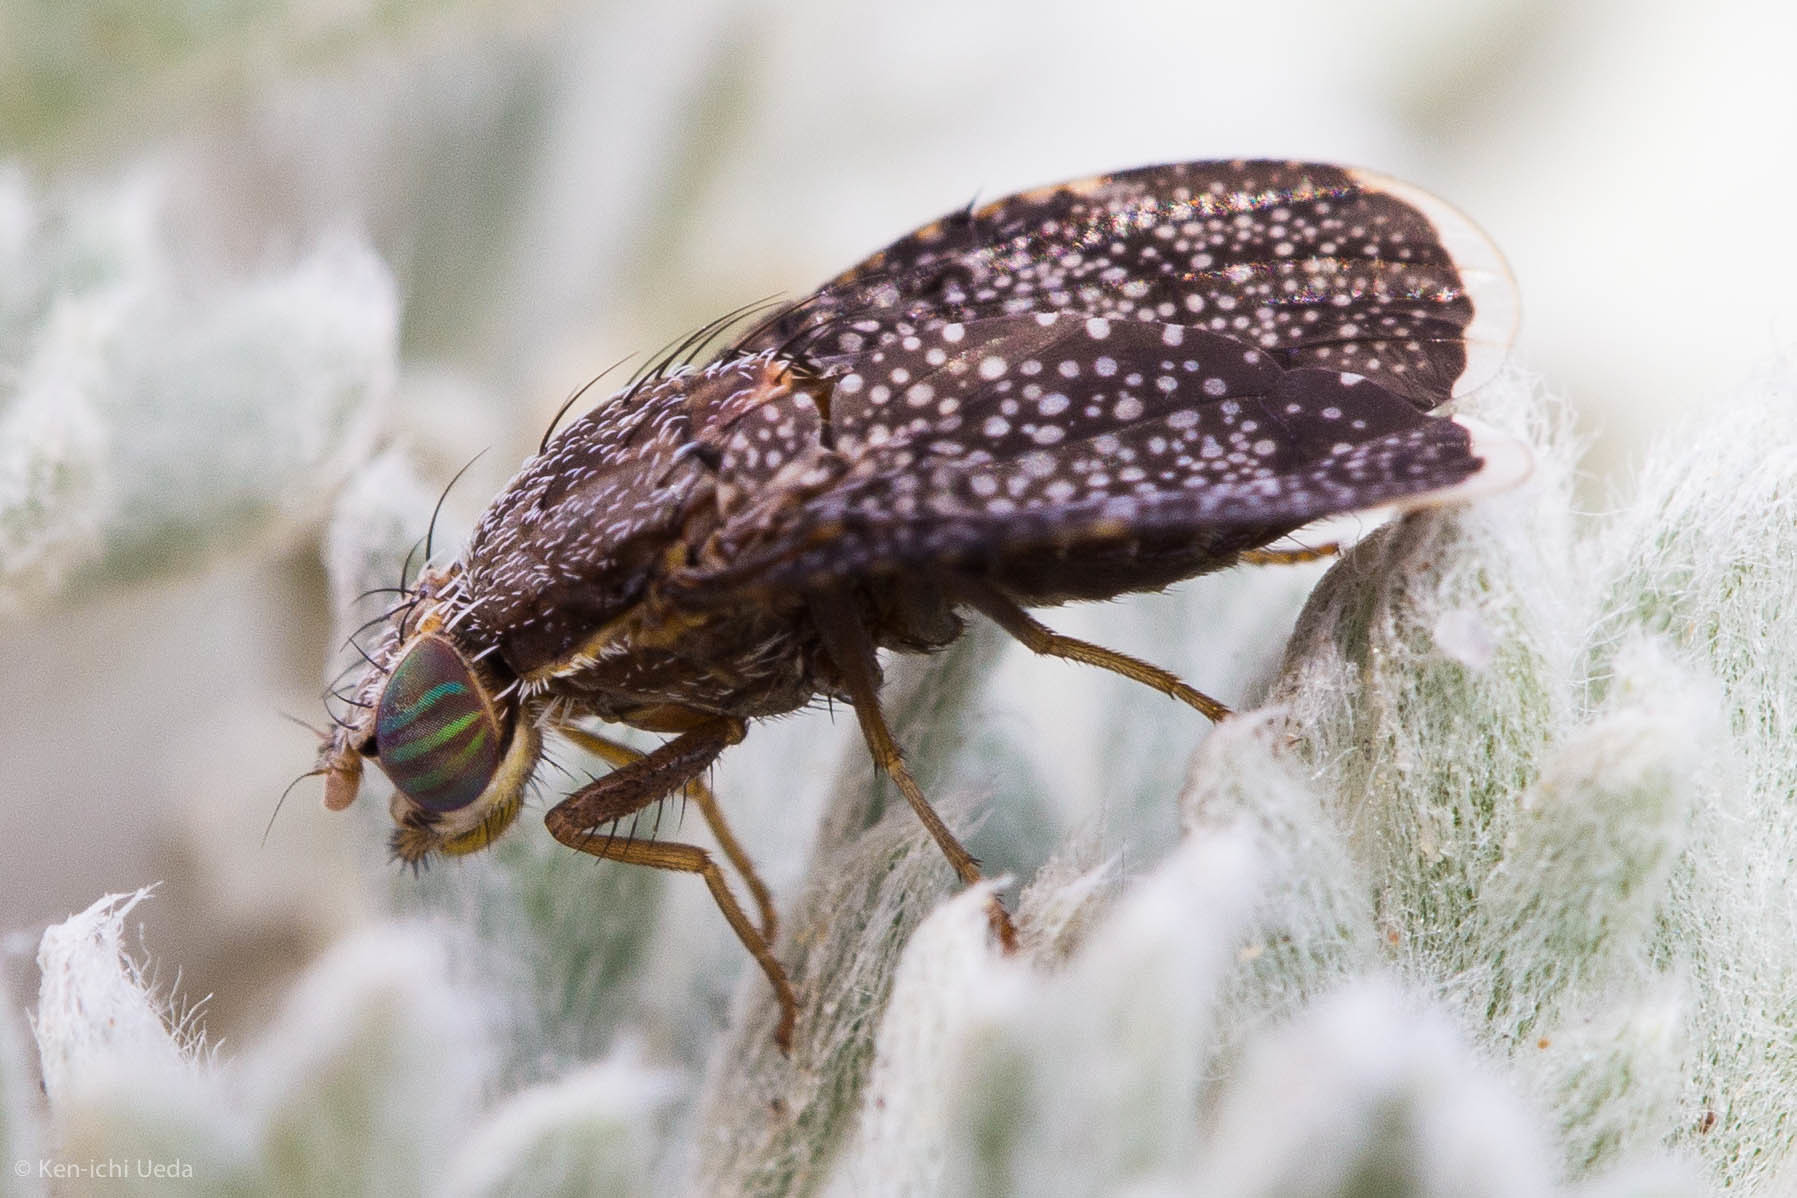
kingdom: Animalia
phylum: Arthropoda
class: Insecta
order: Diptera
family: Tephritidae
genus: Eutreta
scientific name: Eutreta angusta
